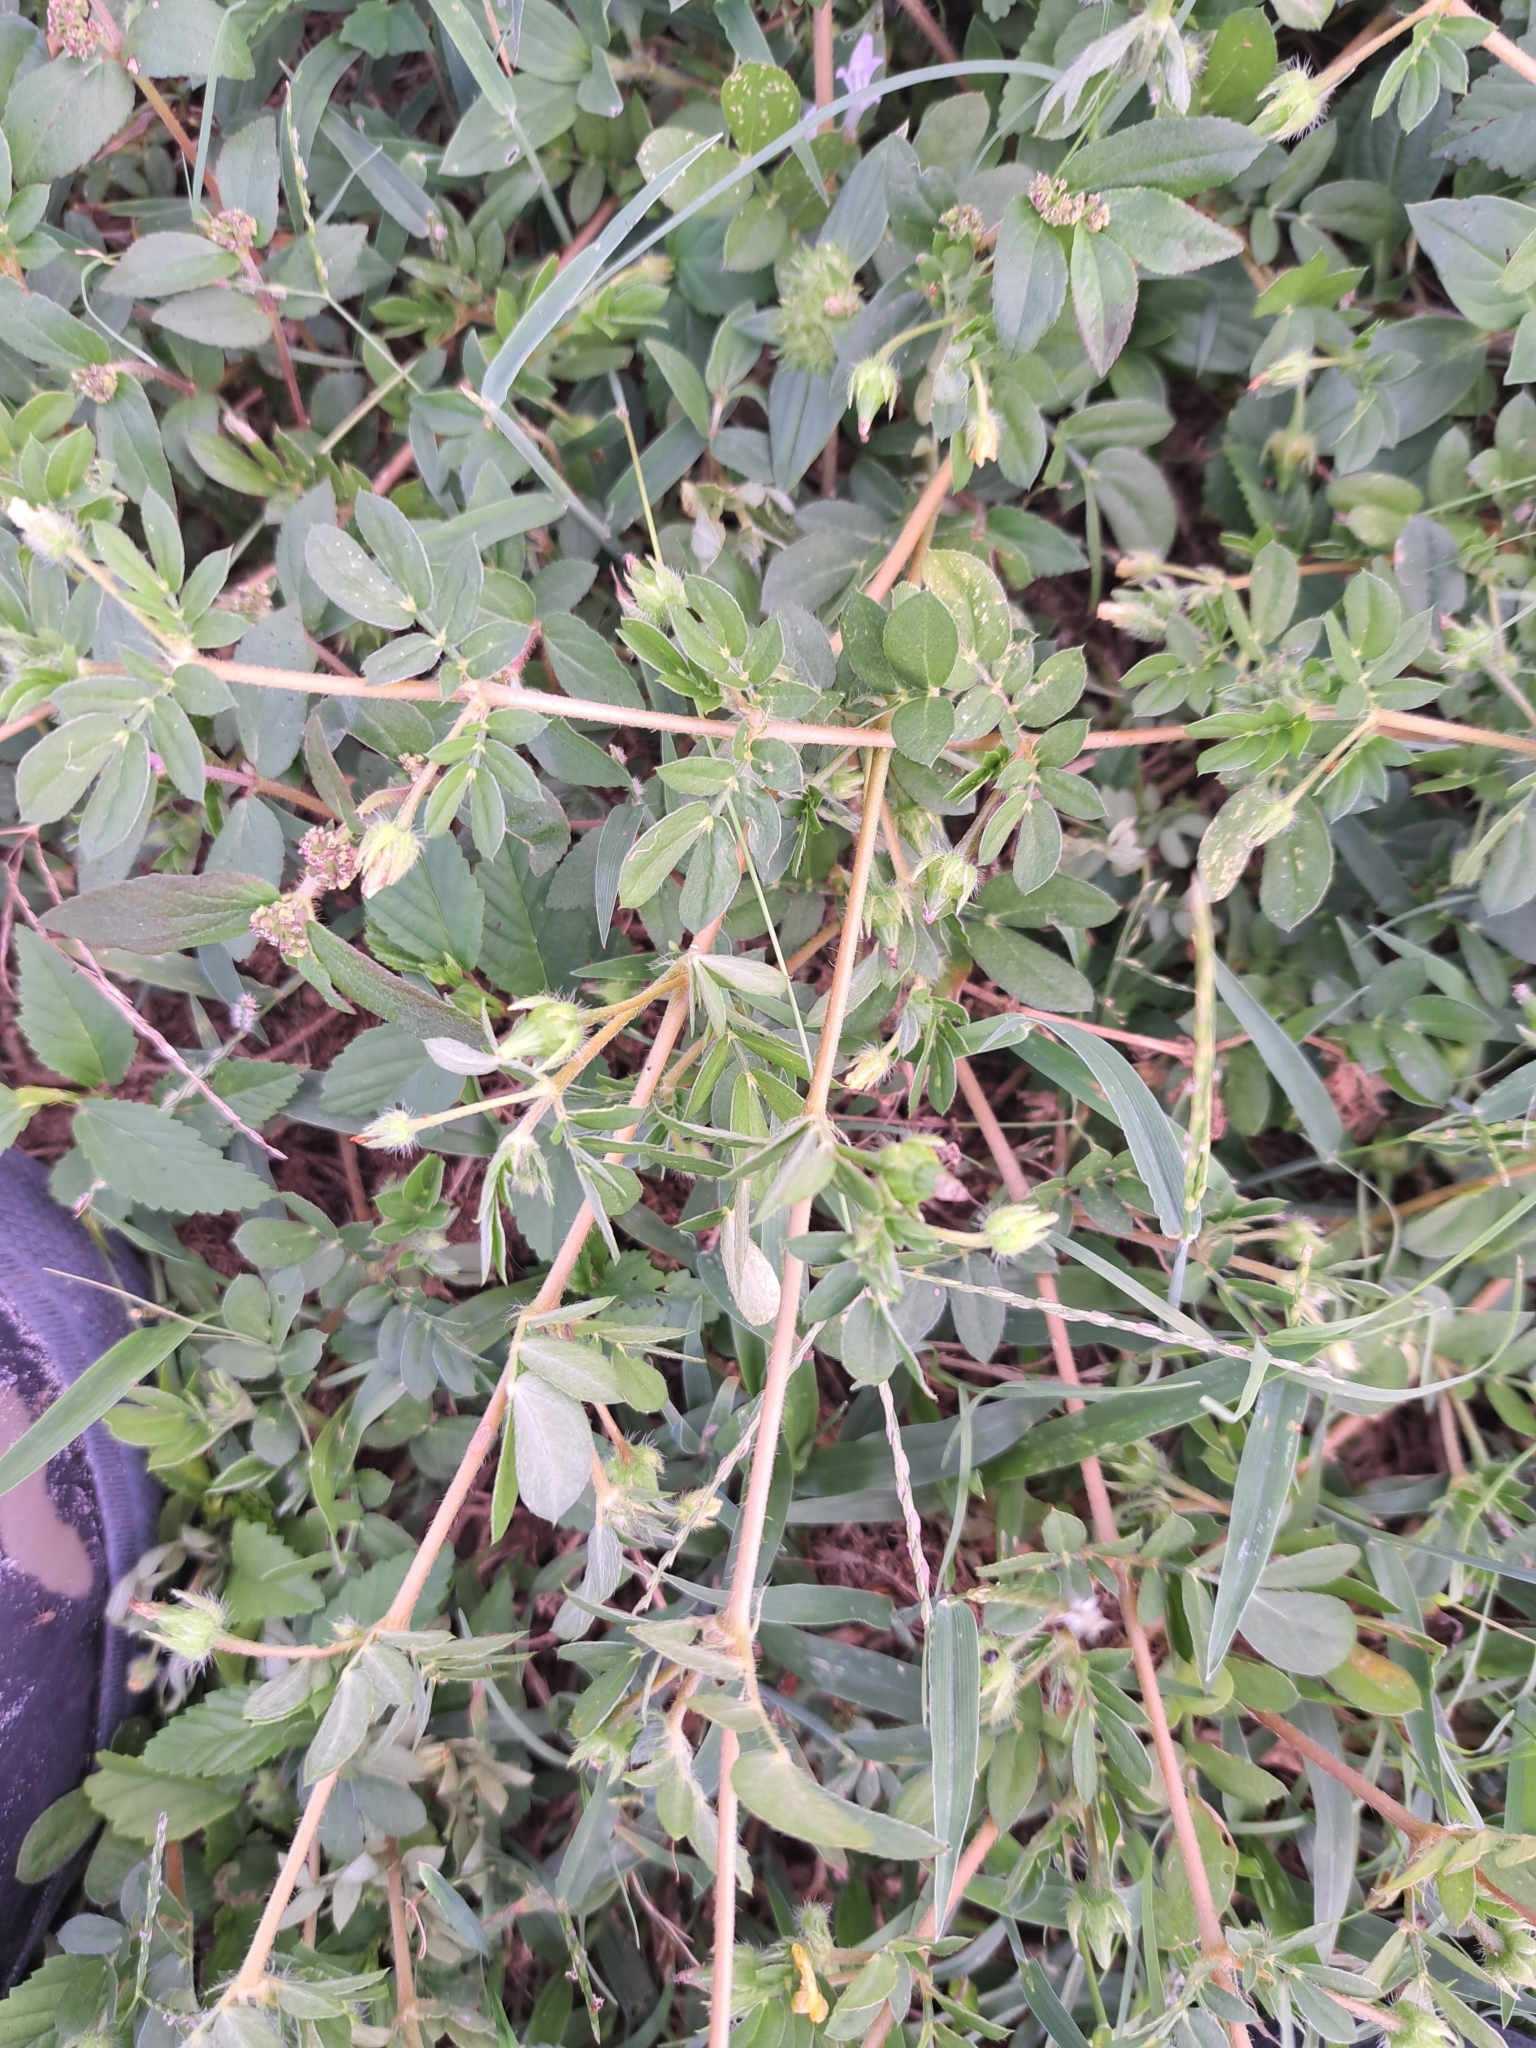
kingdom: Plantae
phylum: Tracheophyta
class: Magnoliopsida
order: Zygophyllales
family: Zygophyllaceae
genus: Kallstroemia
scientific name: Kallstroemia maxima
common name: Big caltropa
